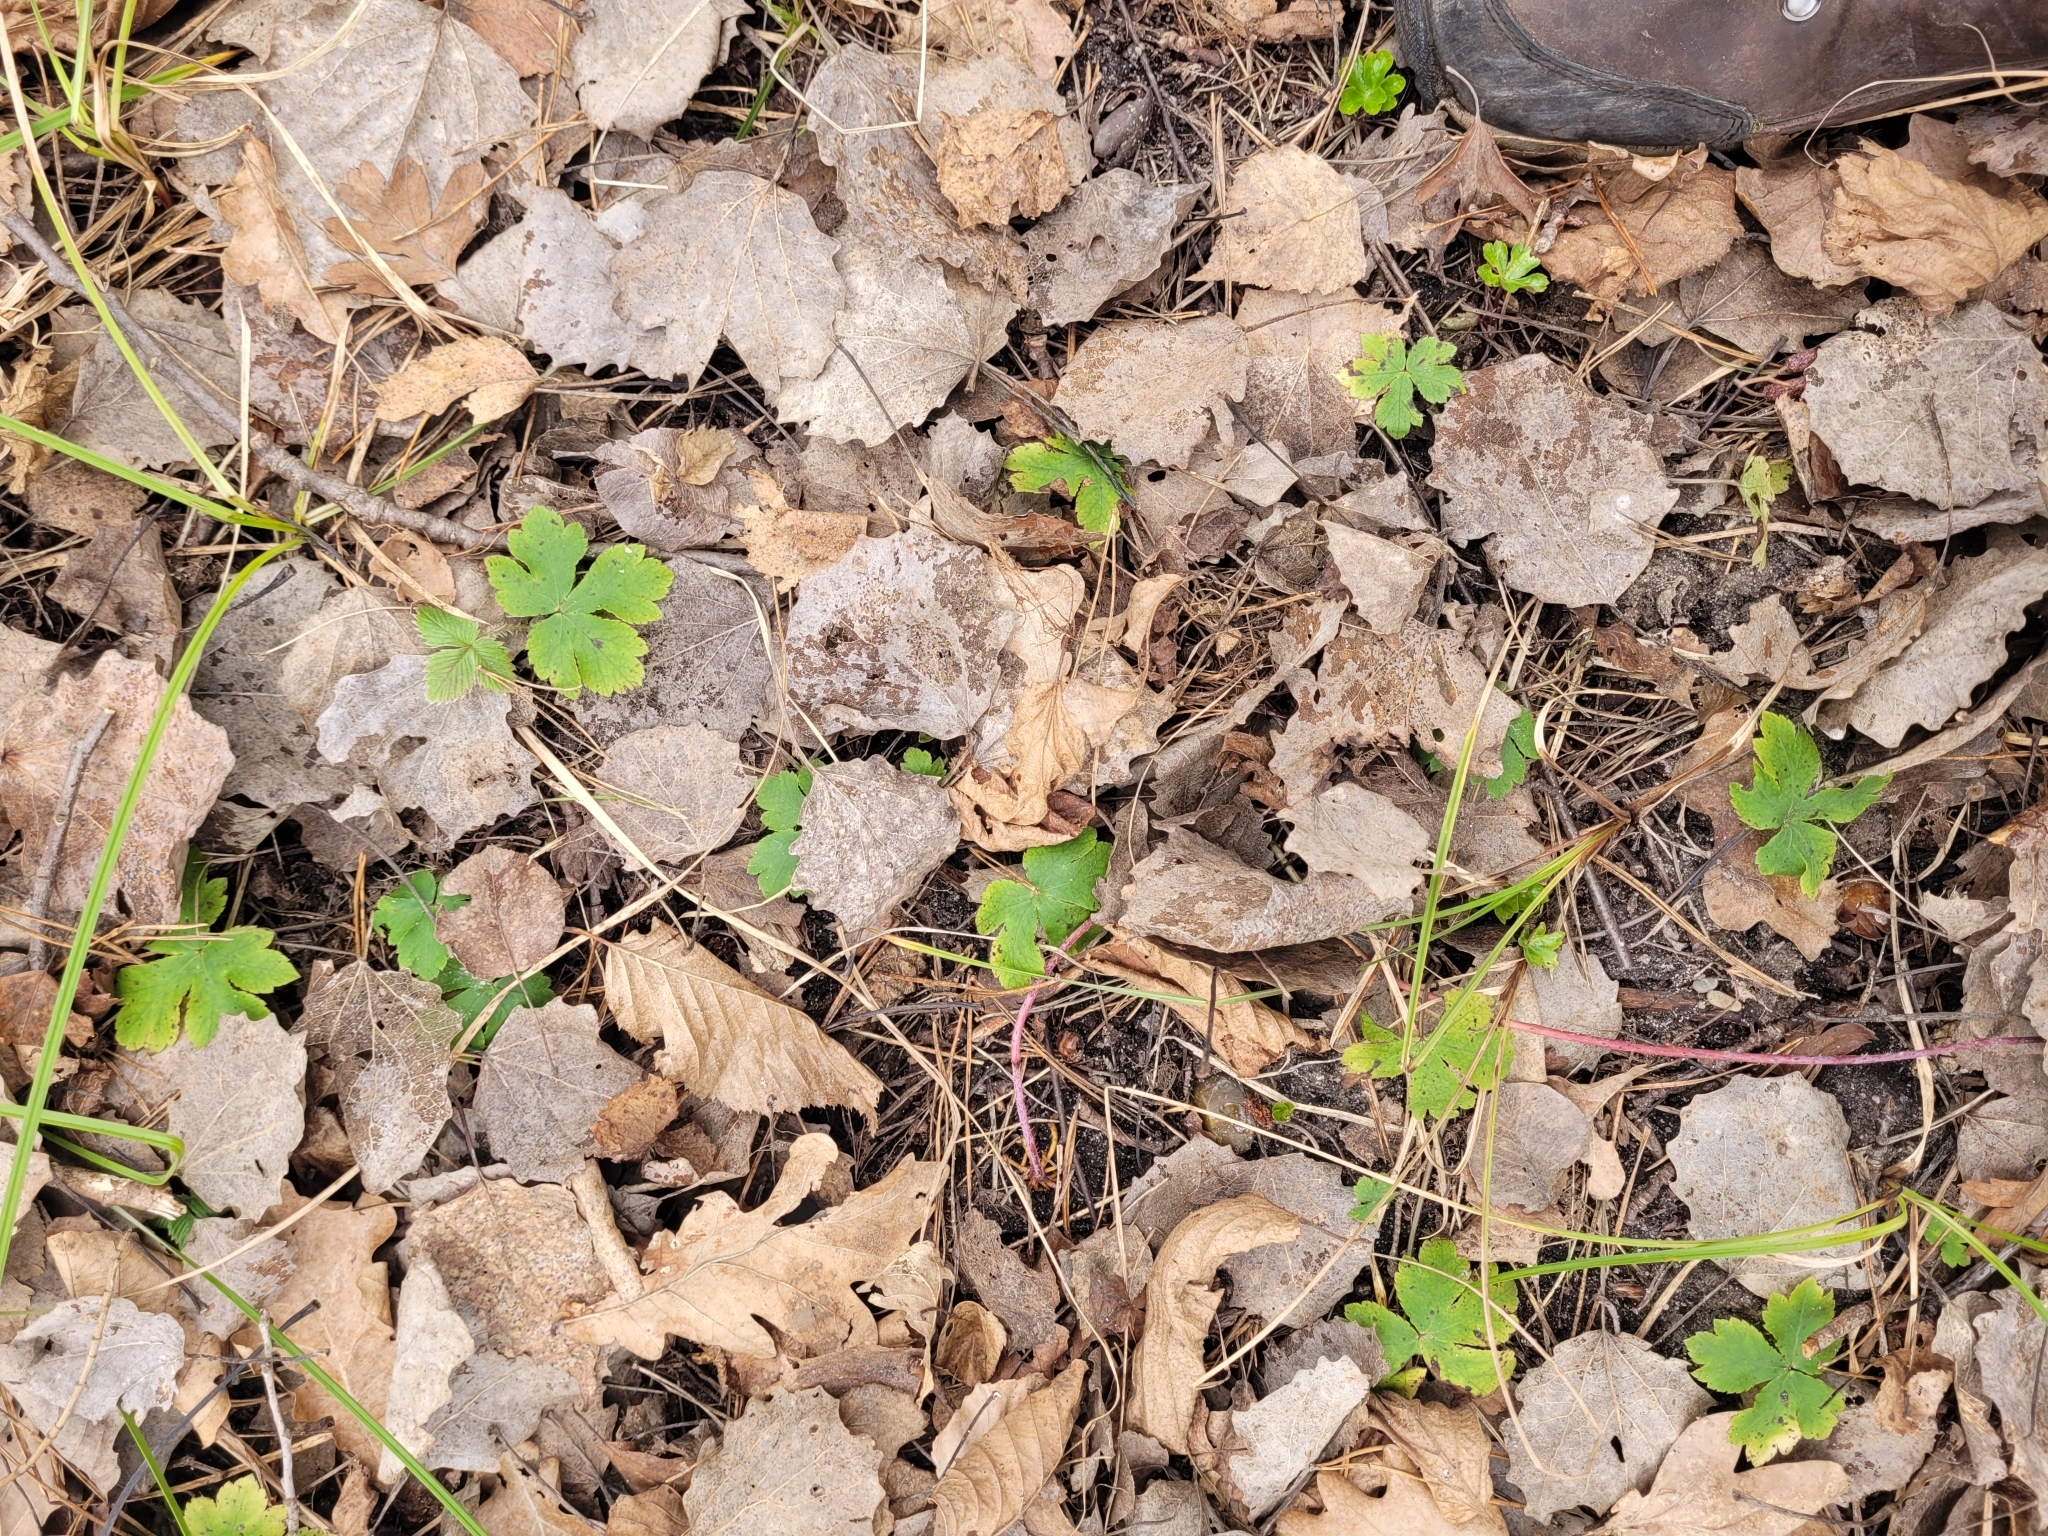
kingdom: Plantae
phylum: Tracheophyta
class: Magnoliopsida
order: Apiales
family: Apiaceae
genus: Sanicula
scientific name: Sanicula europaea
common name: Sanicle
